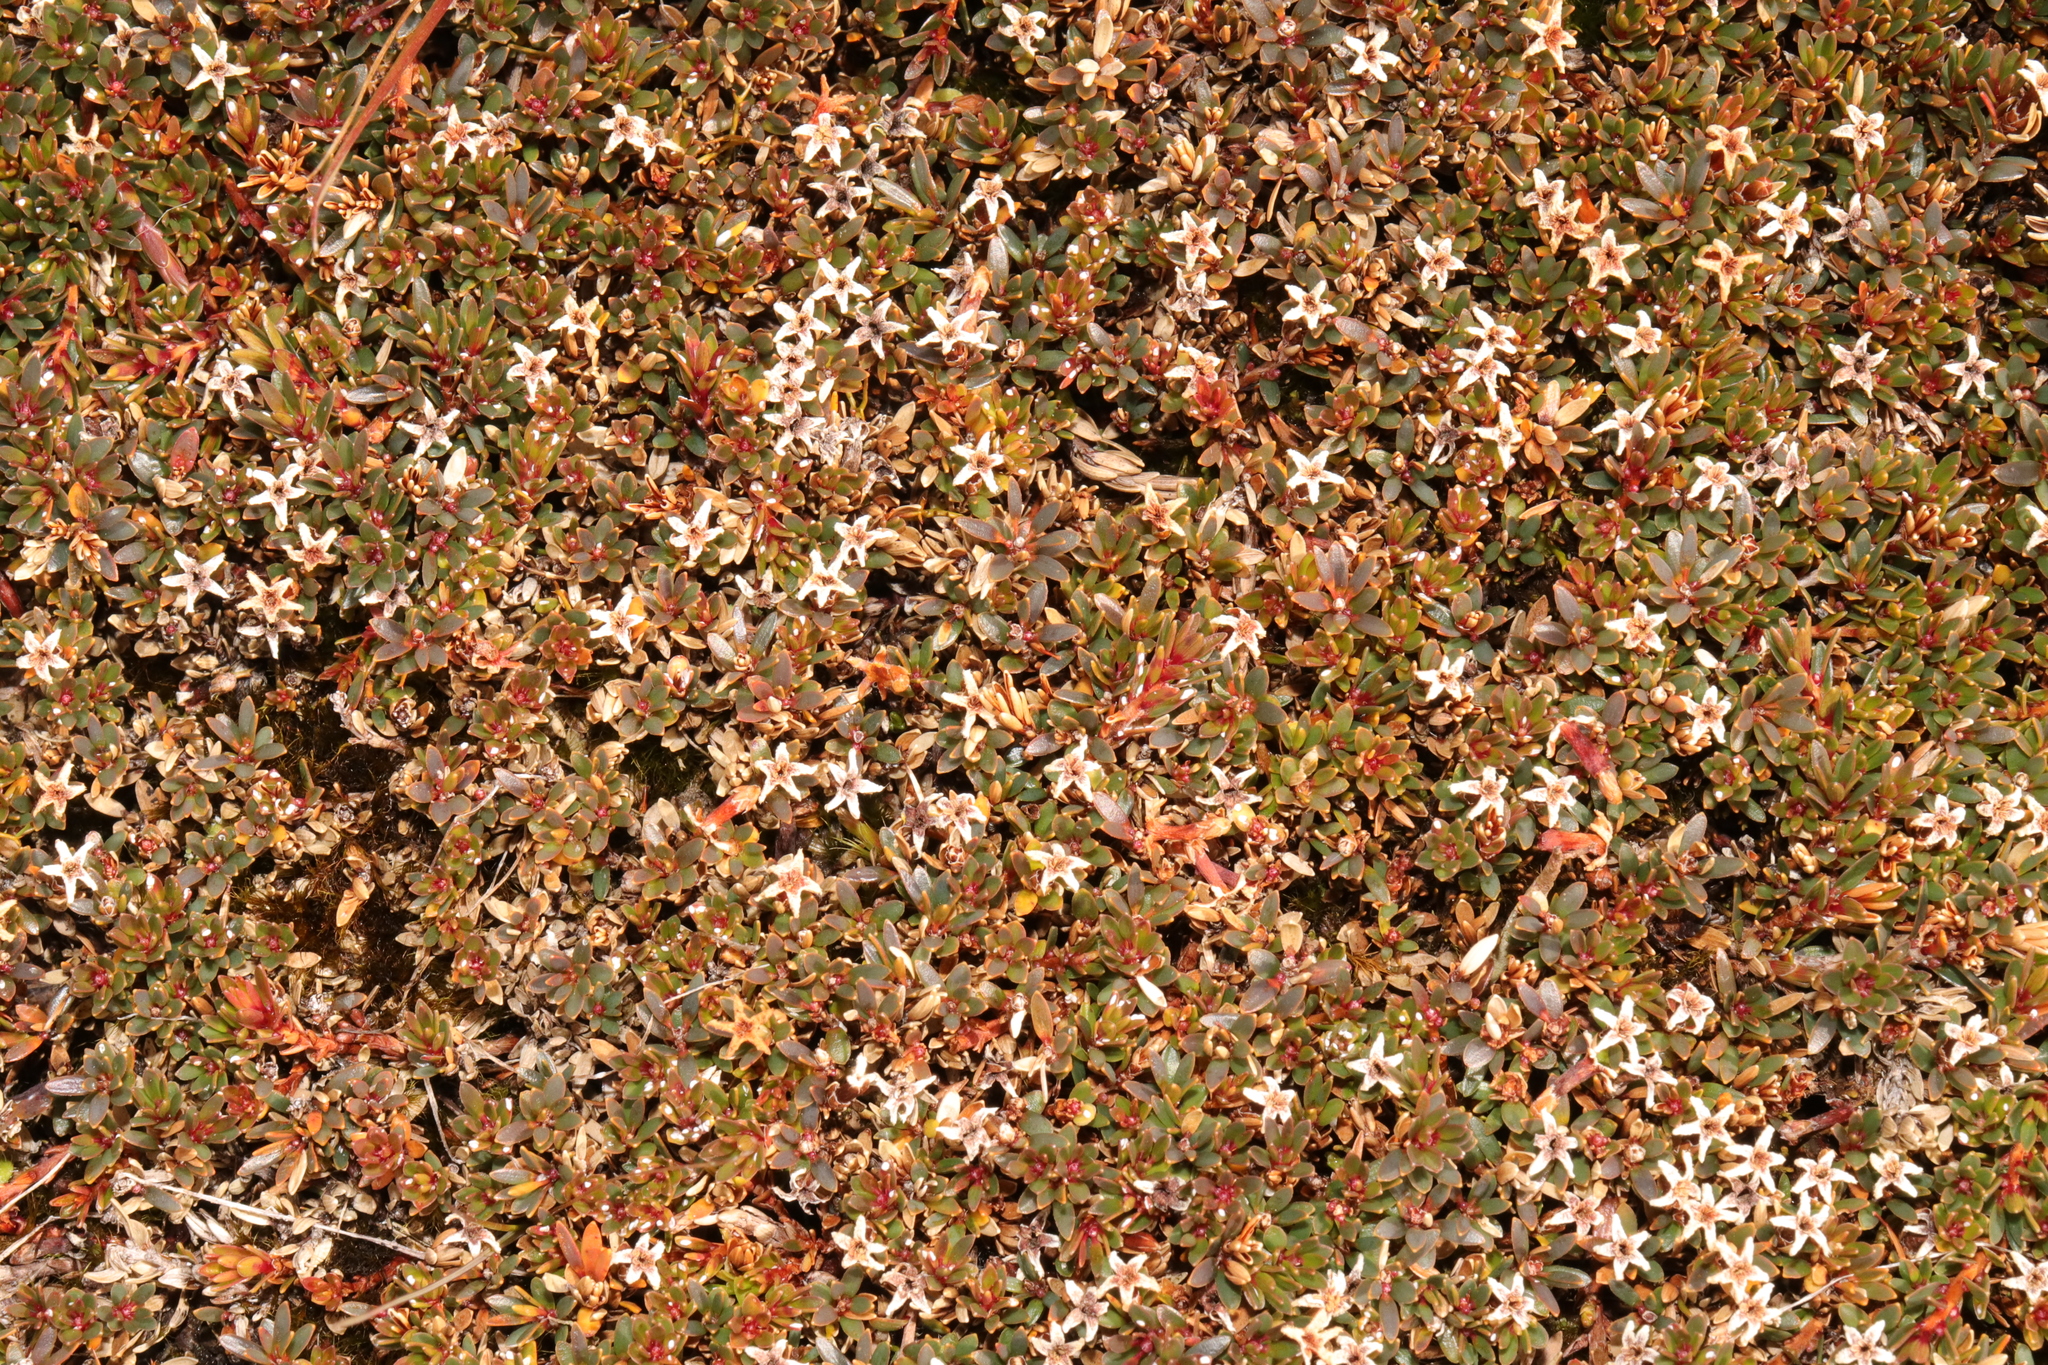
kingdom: Plantae
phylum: Tracheophyta
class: Magnoliopsida
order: Ericales
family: Ericaceae
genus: Pentachondra
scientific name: Pentachondra pumila
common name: Carpet-heath
